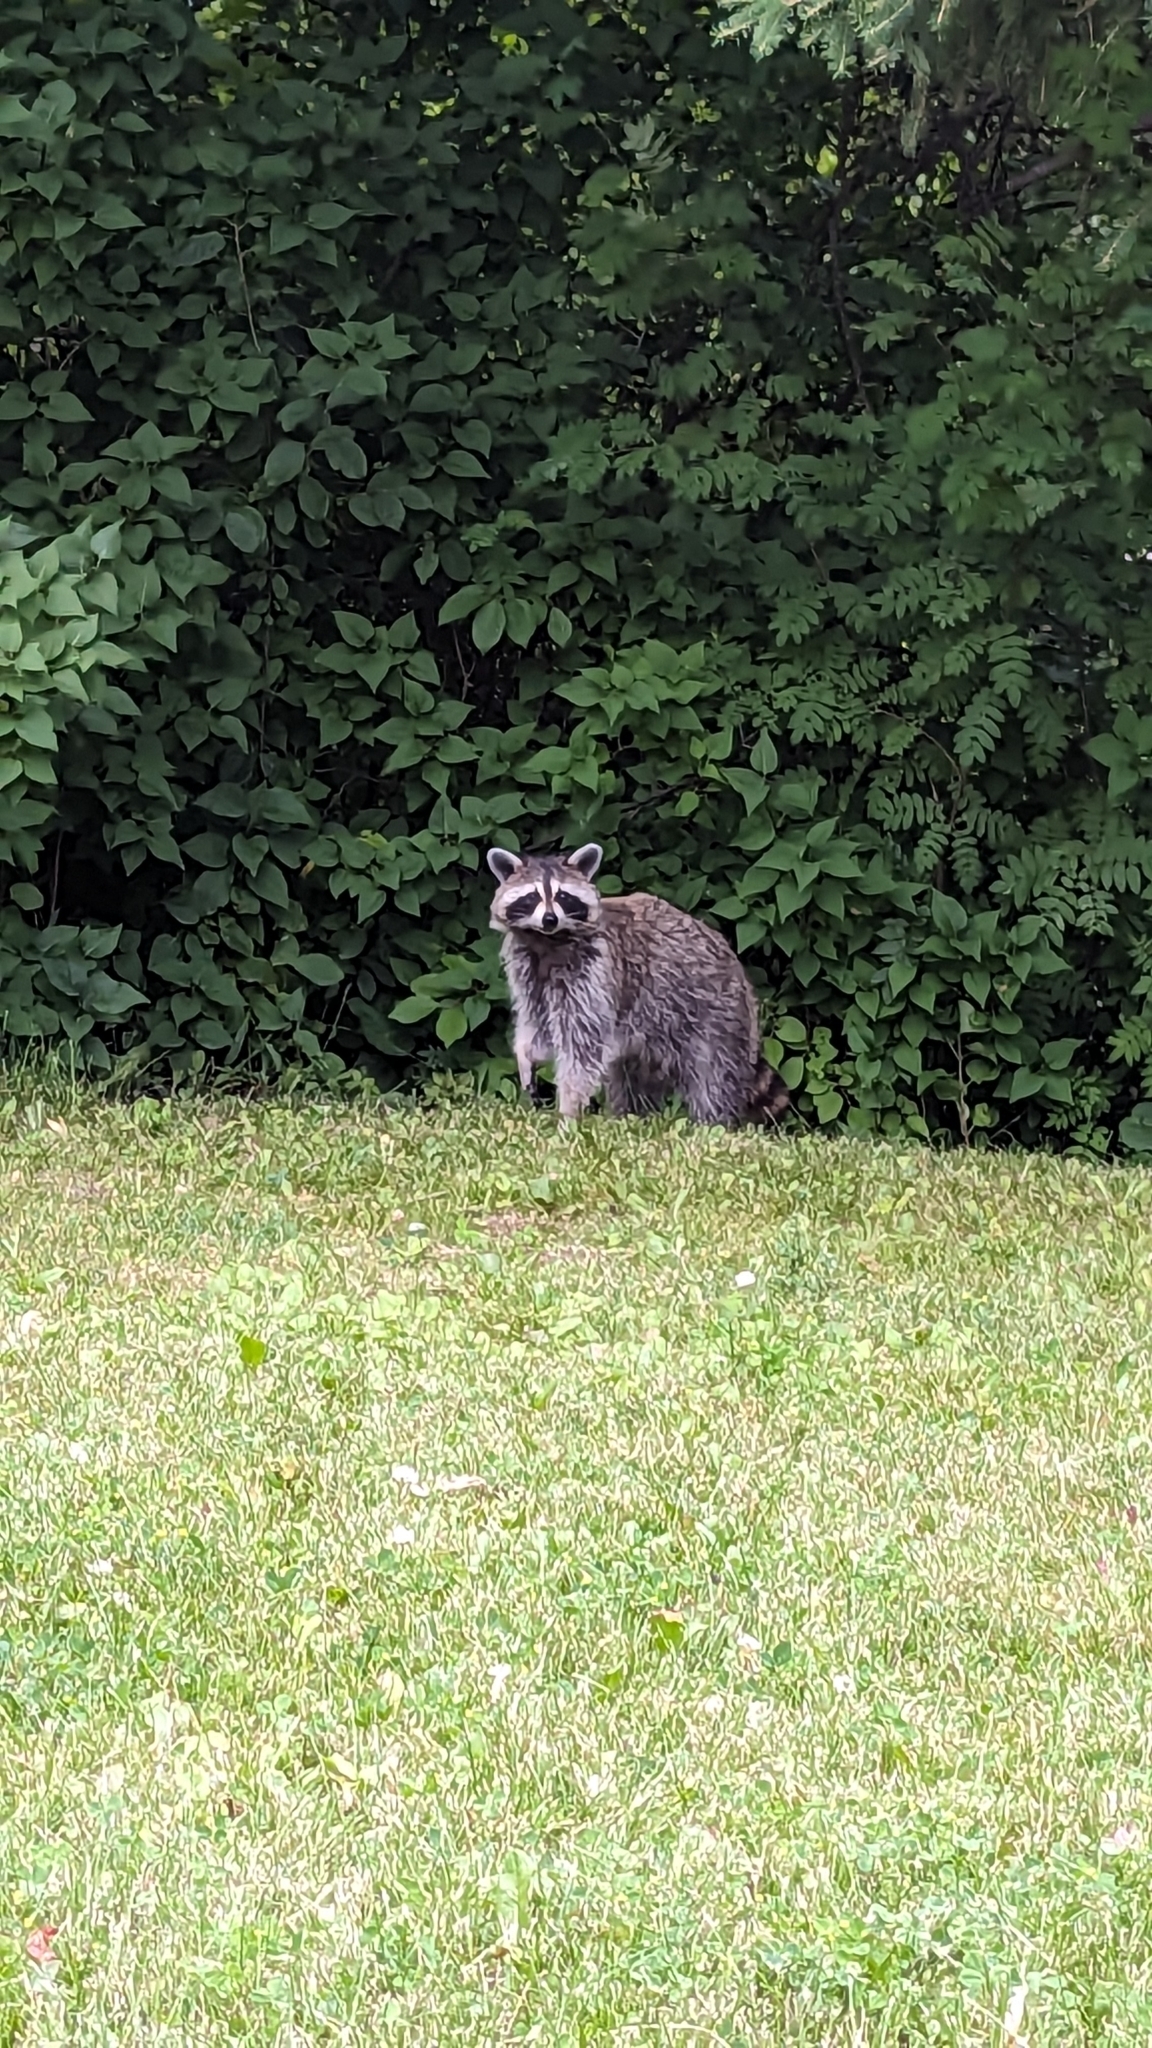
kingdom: Animalia
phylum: Chordata
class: Mammalia
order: Carnivora
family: Procyonidae
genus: Procyon
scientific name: Procyon lotor
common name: Raccoon
